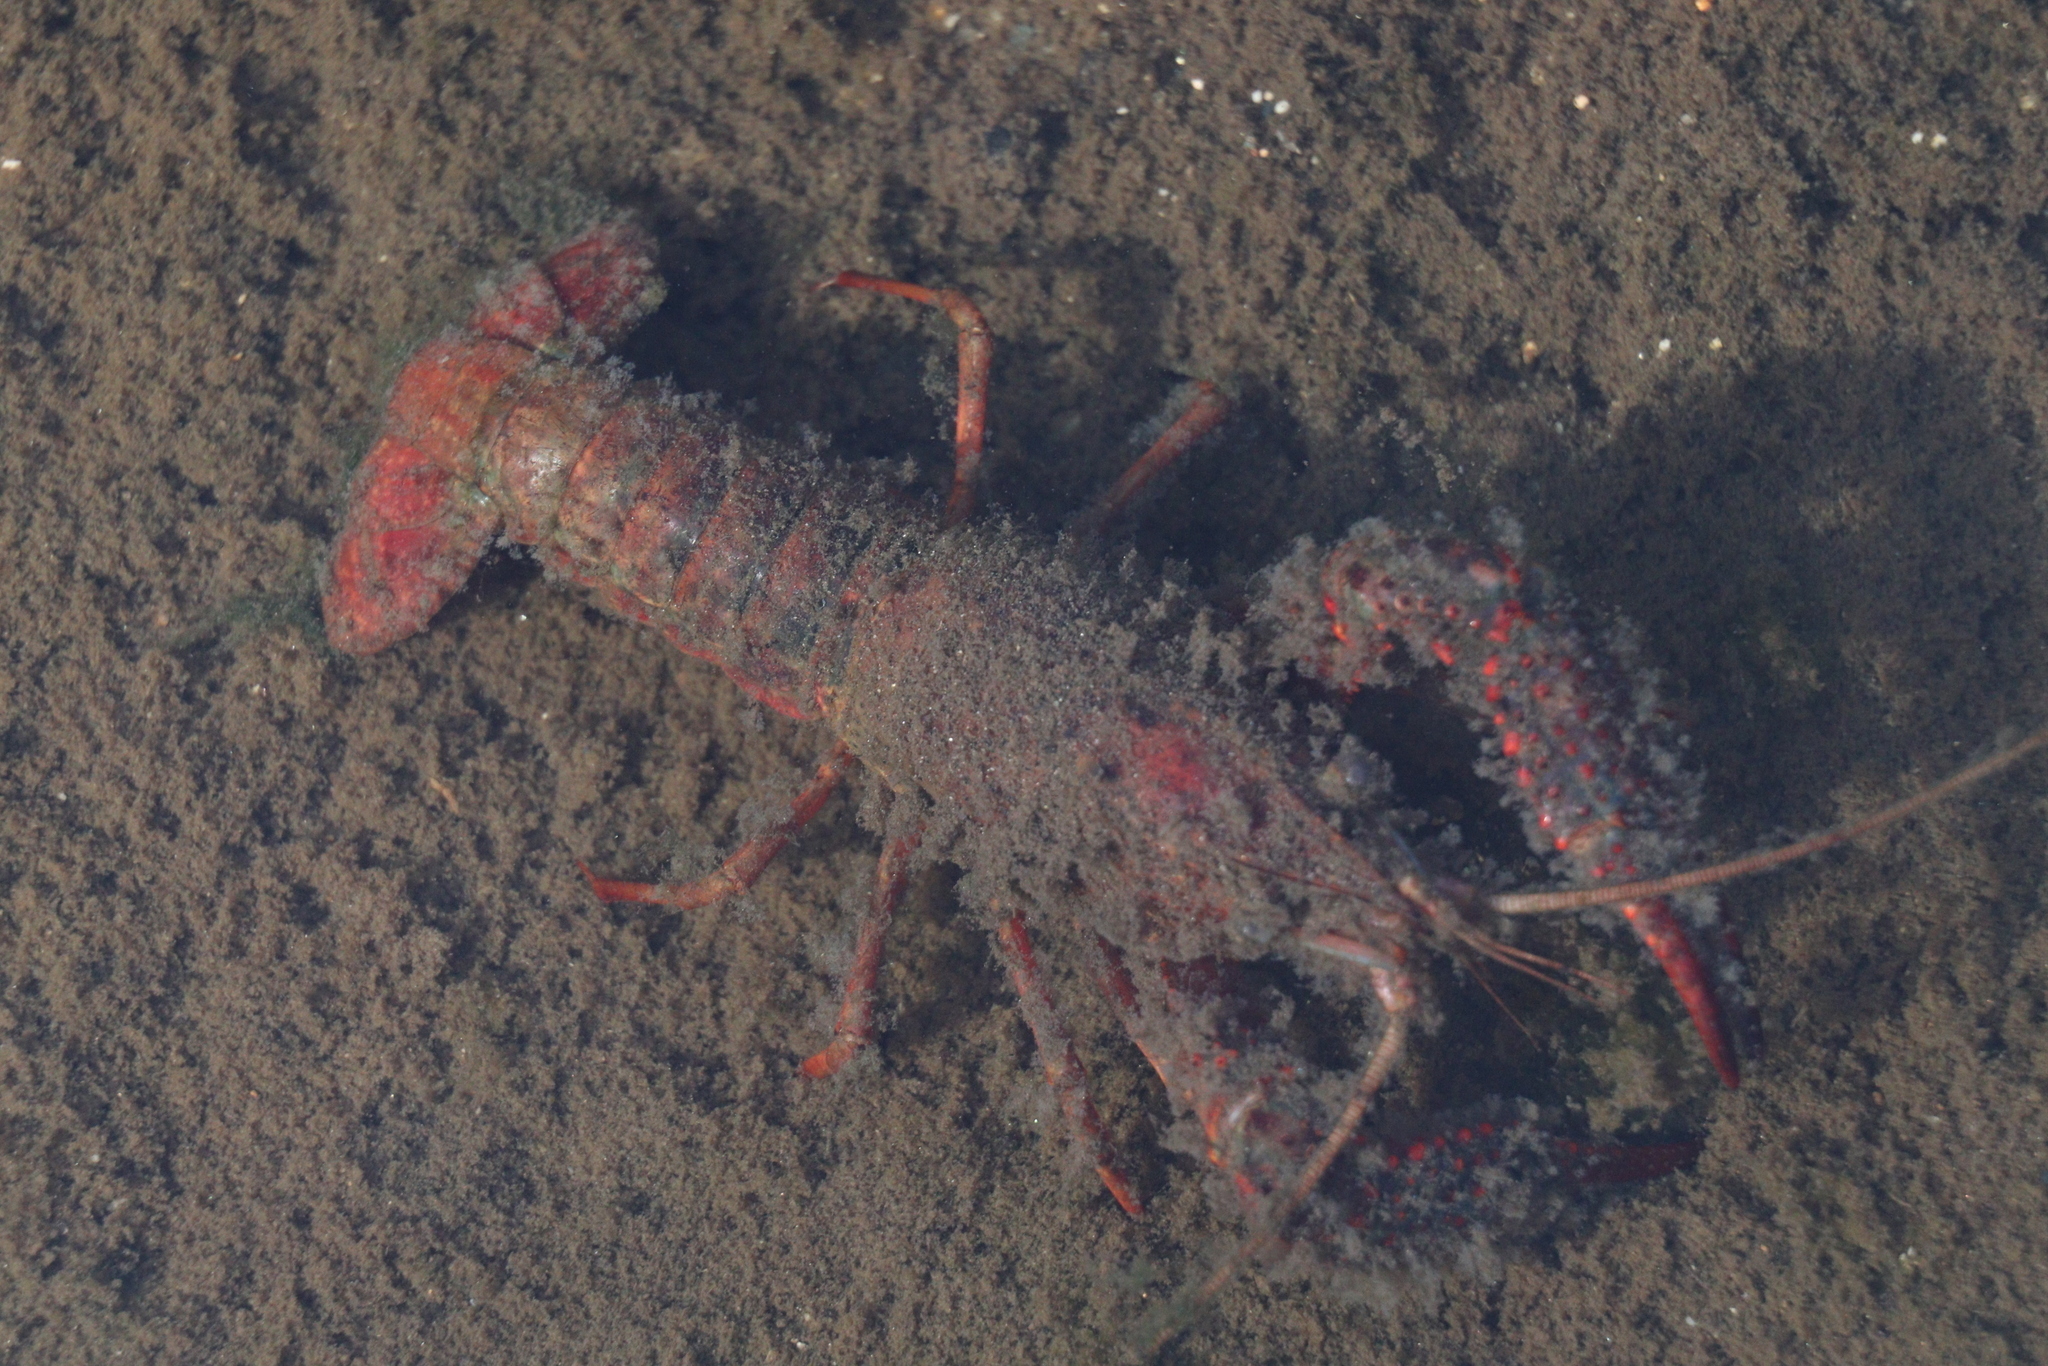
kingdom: Animalia
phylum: Arthropoda
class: Malacostraca
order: Decapoda
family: Cambaridae
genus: Procambarus
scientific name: Procambarus clarkii
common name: Red swamp crayfish
